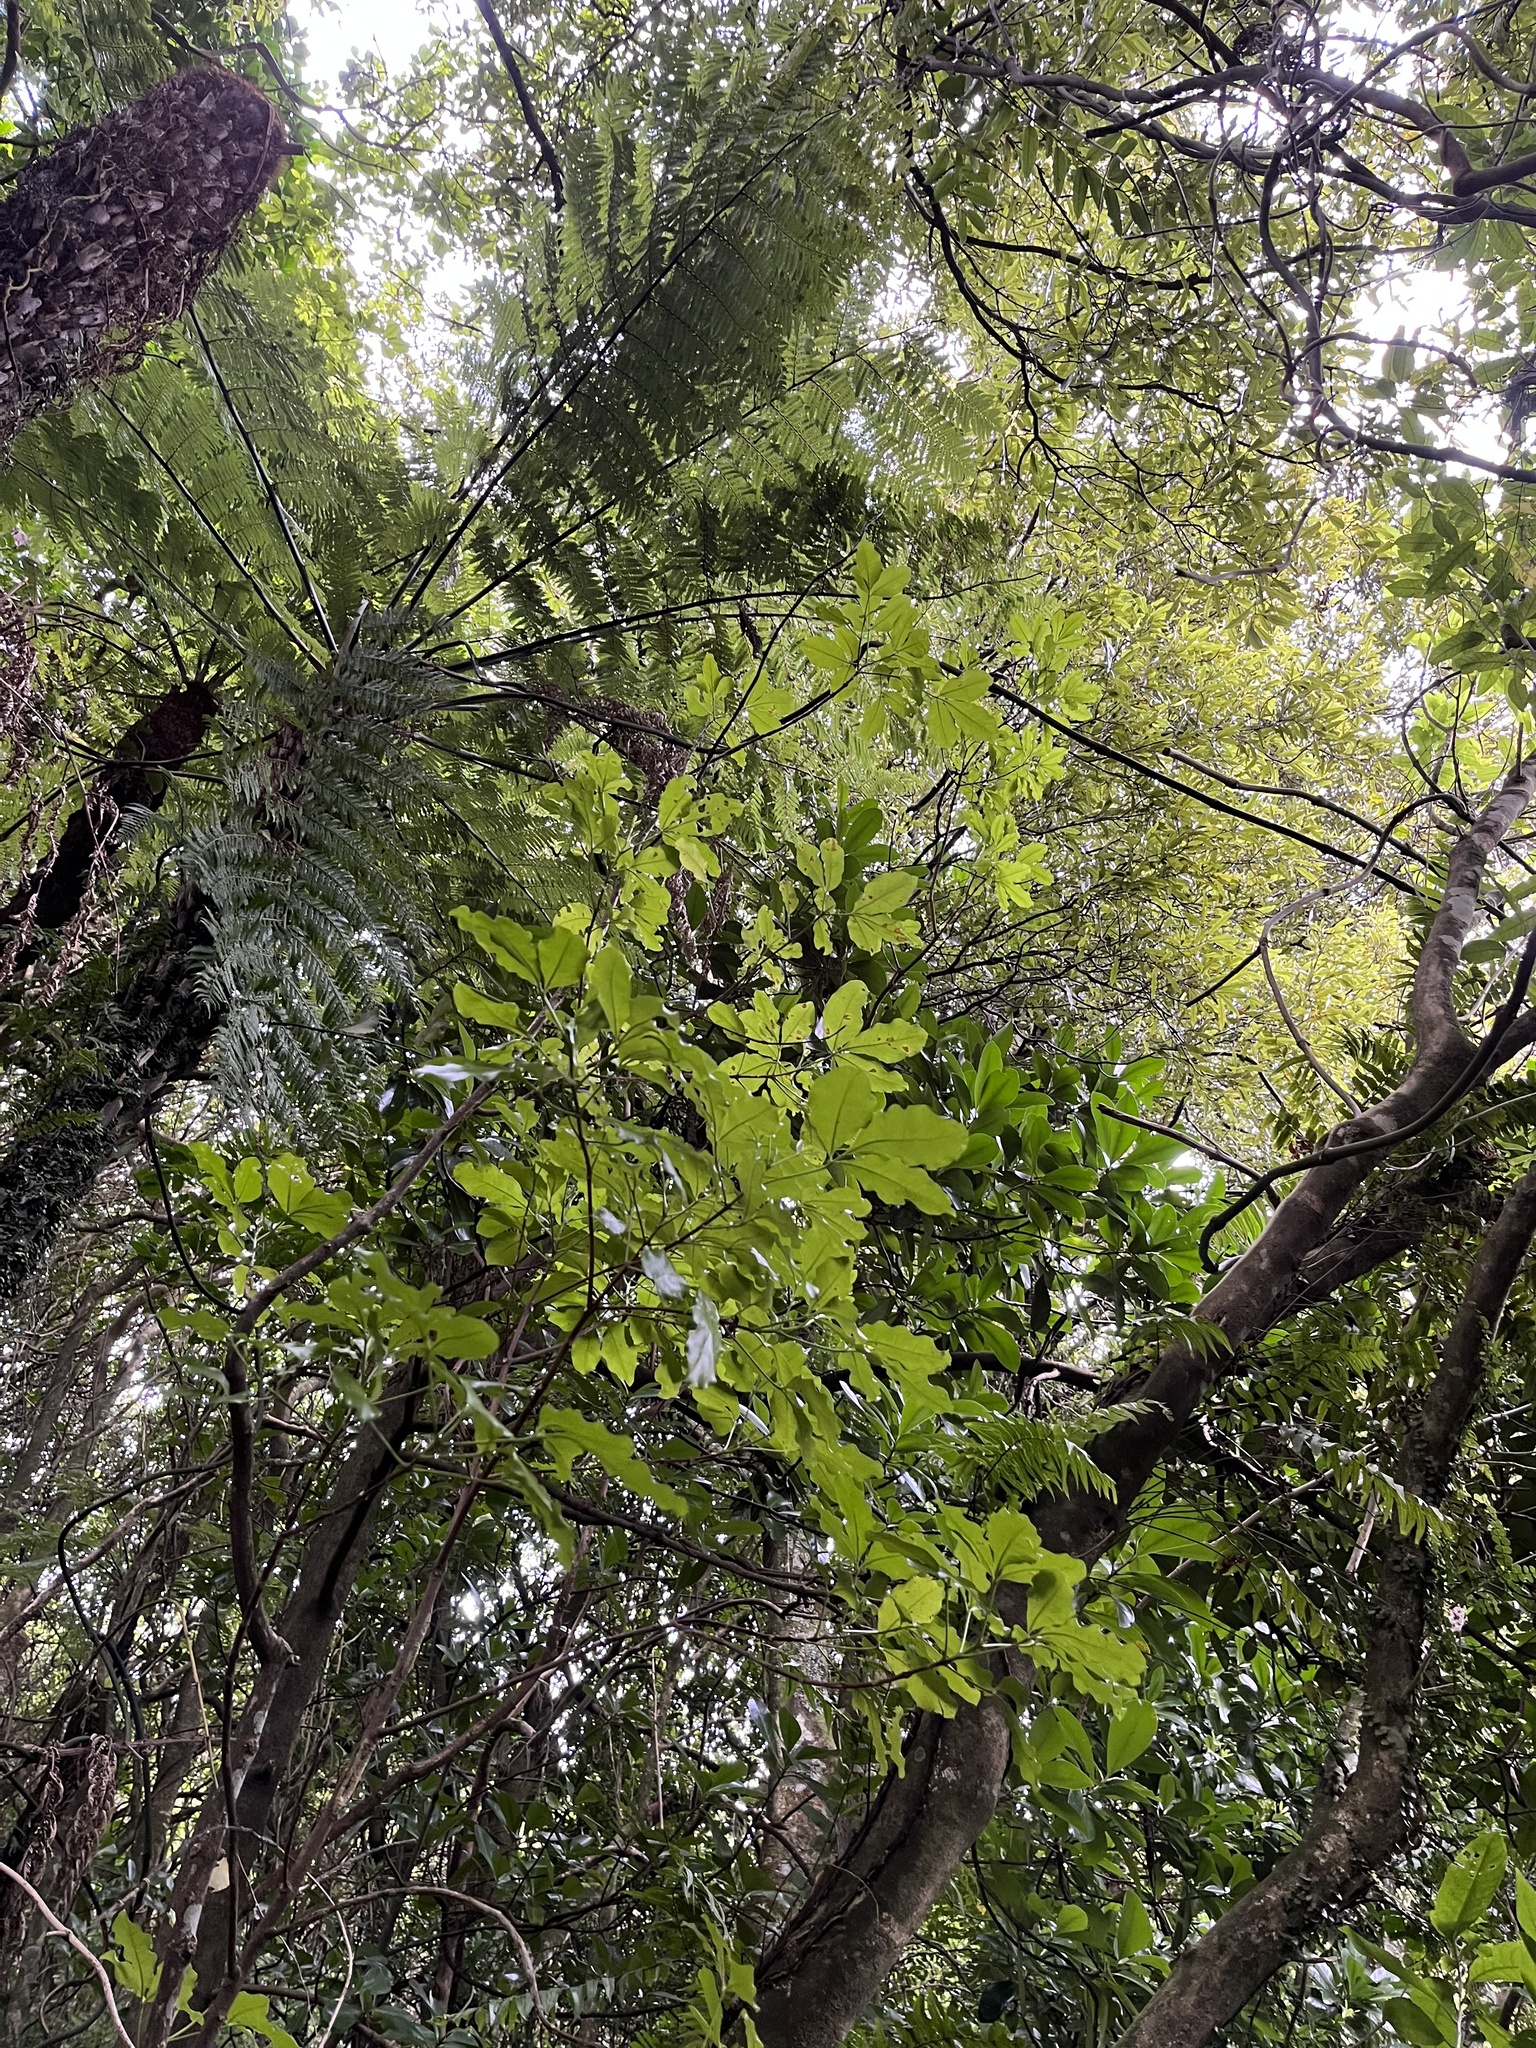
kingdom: Plantae
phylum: Tracheophyta
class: Magnoliopsida
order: Sapindales
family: Rutaceae
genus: Melicope
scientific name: Melicope ternata
